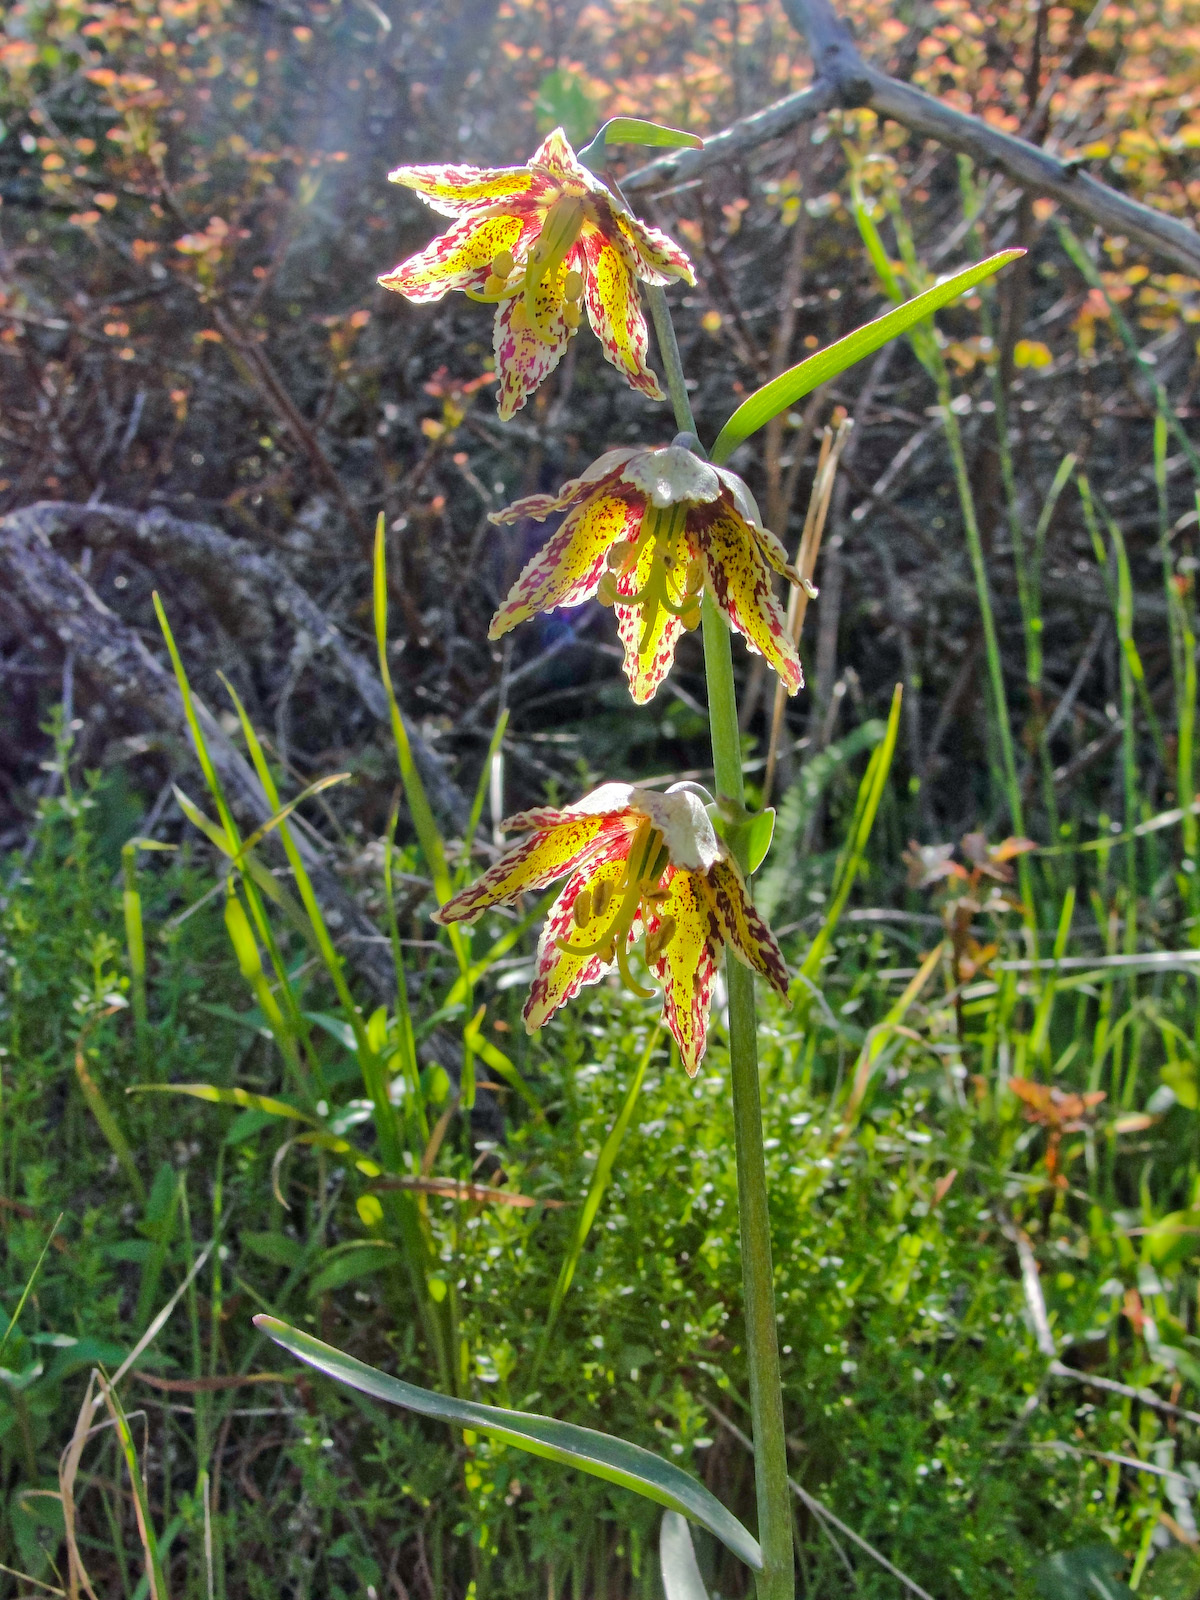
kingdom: Plantae
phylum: Tracheophyta
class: Liliopsida
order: Liliales
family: Liliaceae
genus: Fritillaria
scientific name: Fritillaria affinis
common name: Ojai fritillary
